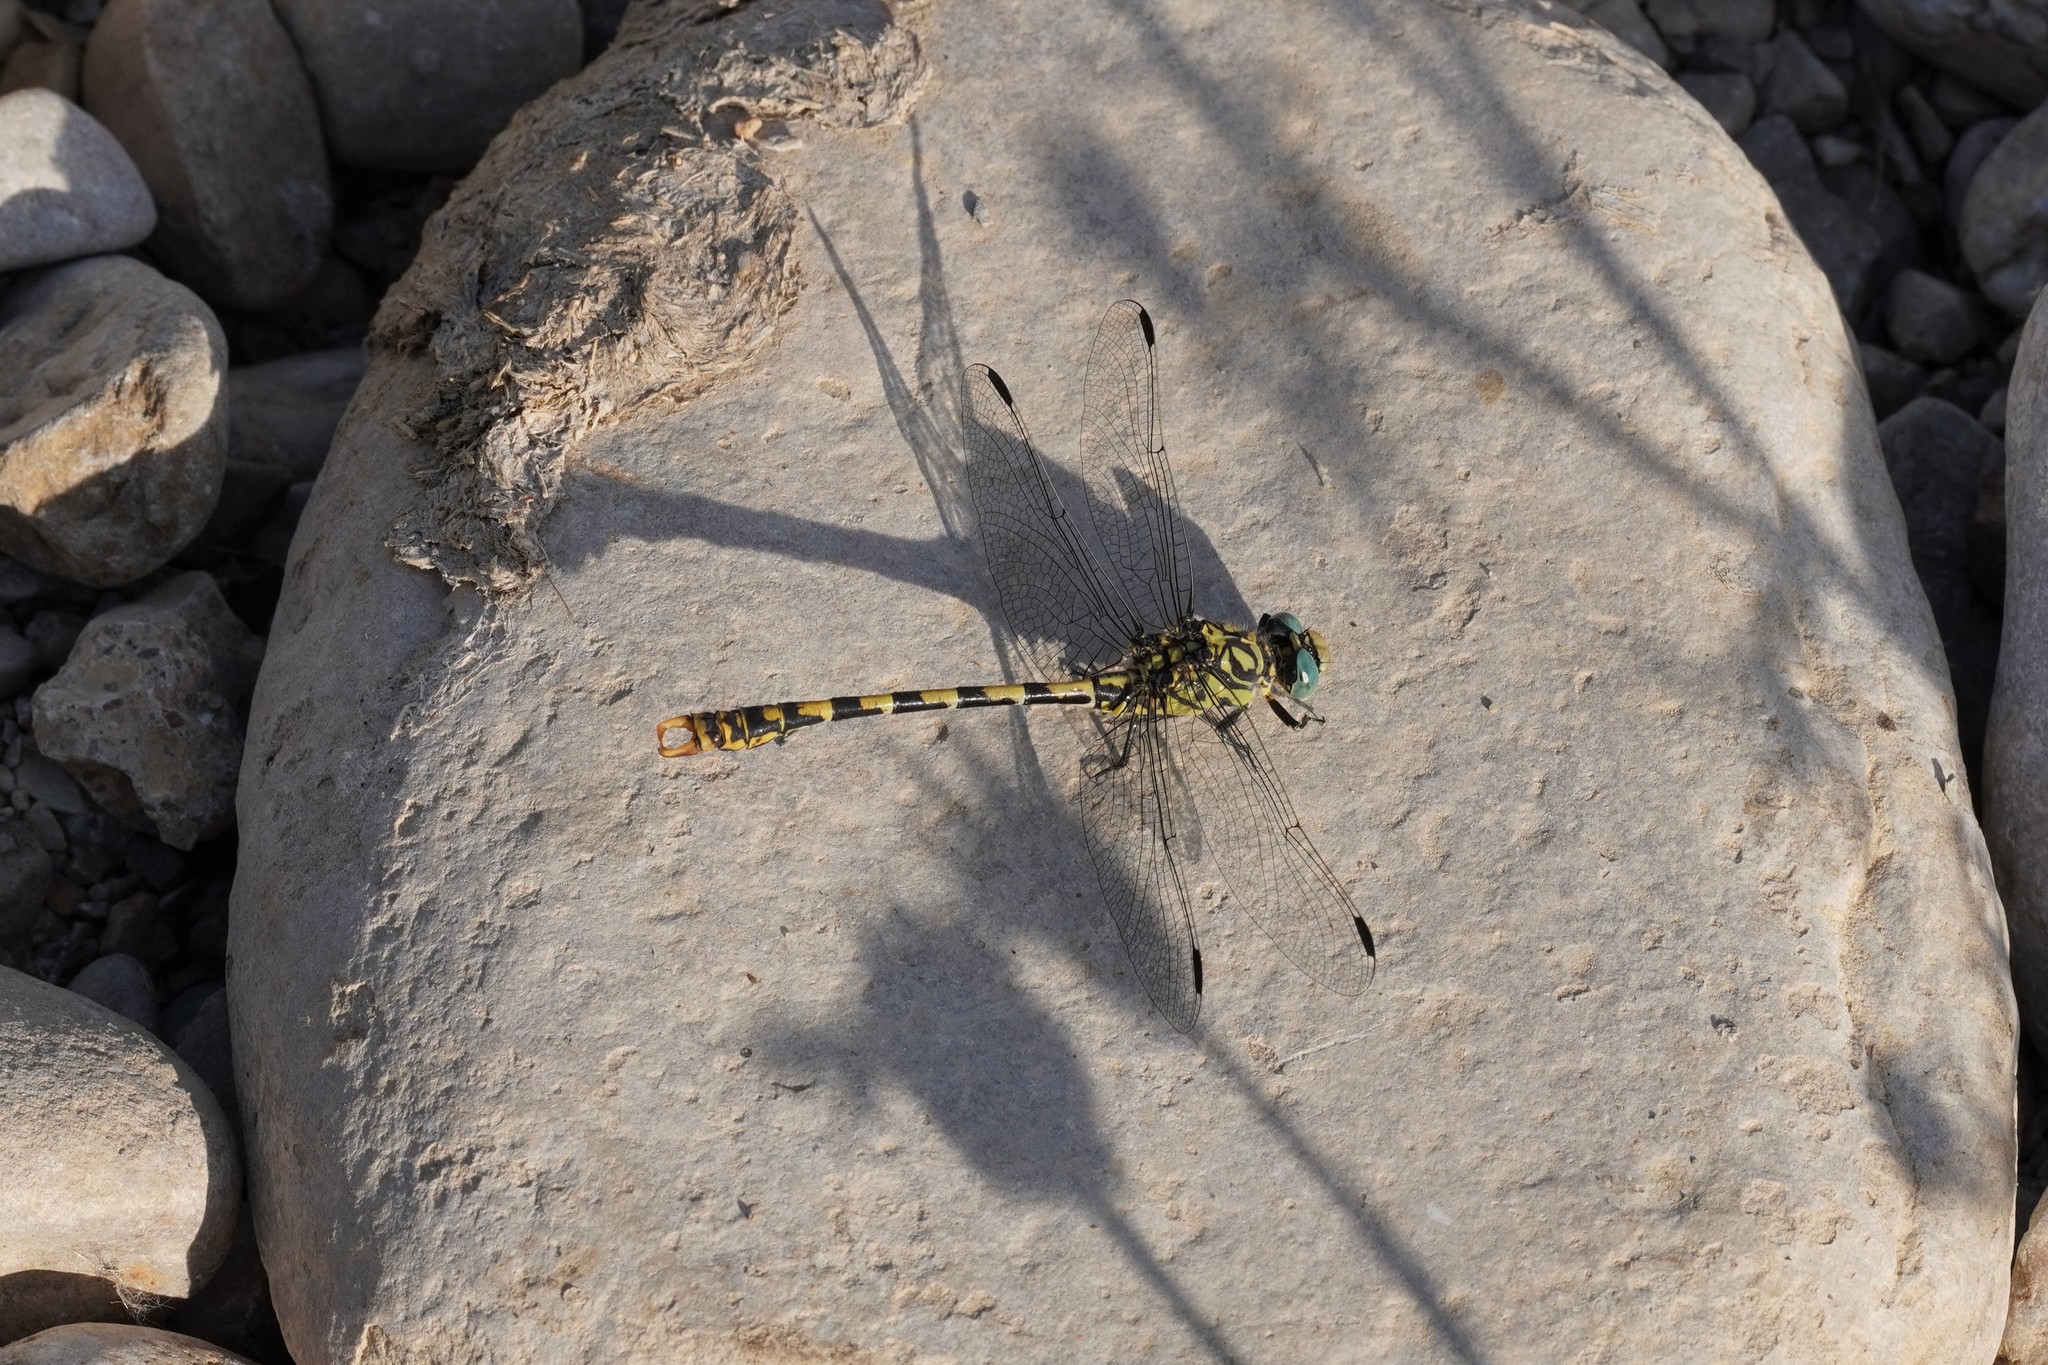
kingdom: Animalia
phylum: Arthropoda
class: Insecta
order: Odonata
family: Gomphidae
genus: Onychogomphus
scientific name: Onychogomphus forcipatus
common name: Small pincertail
